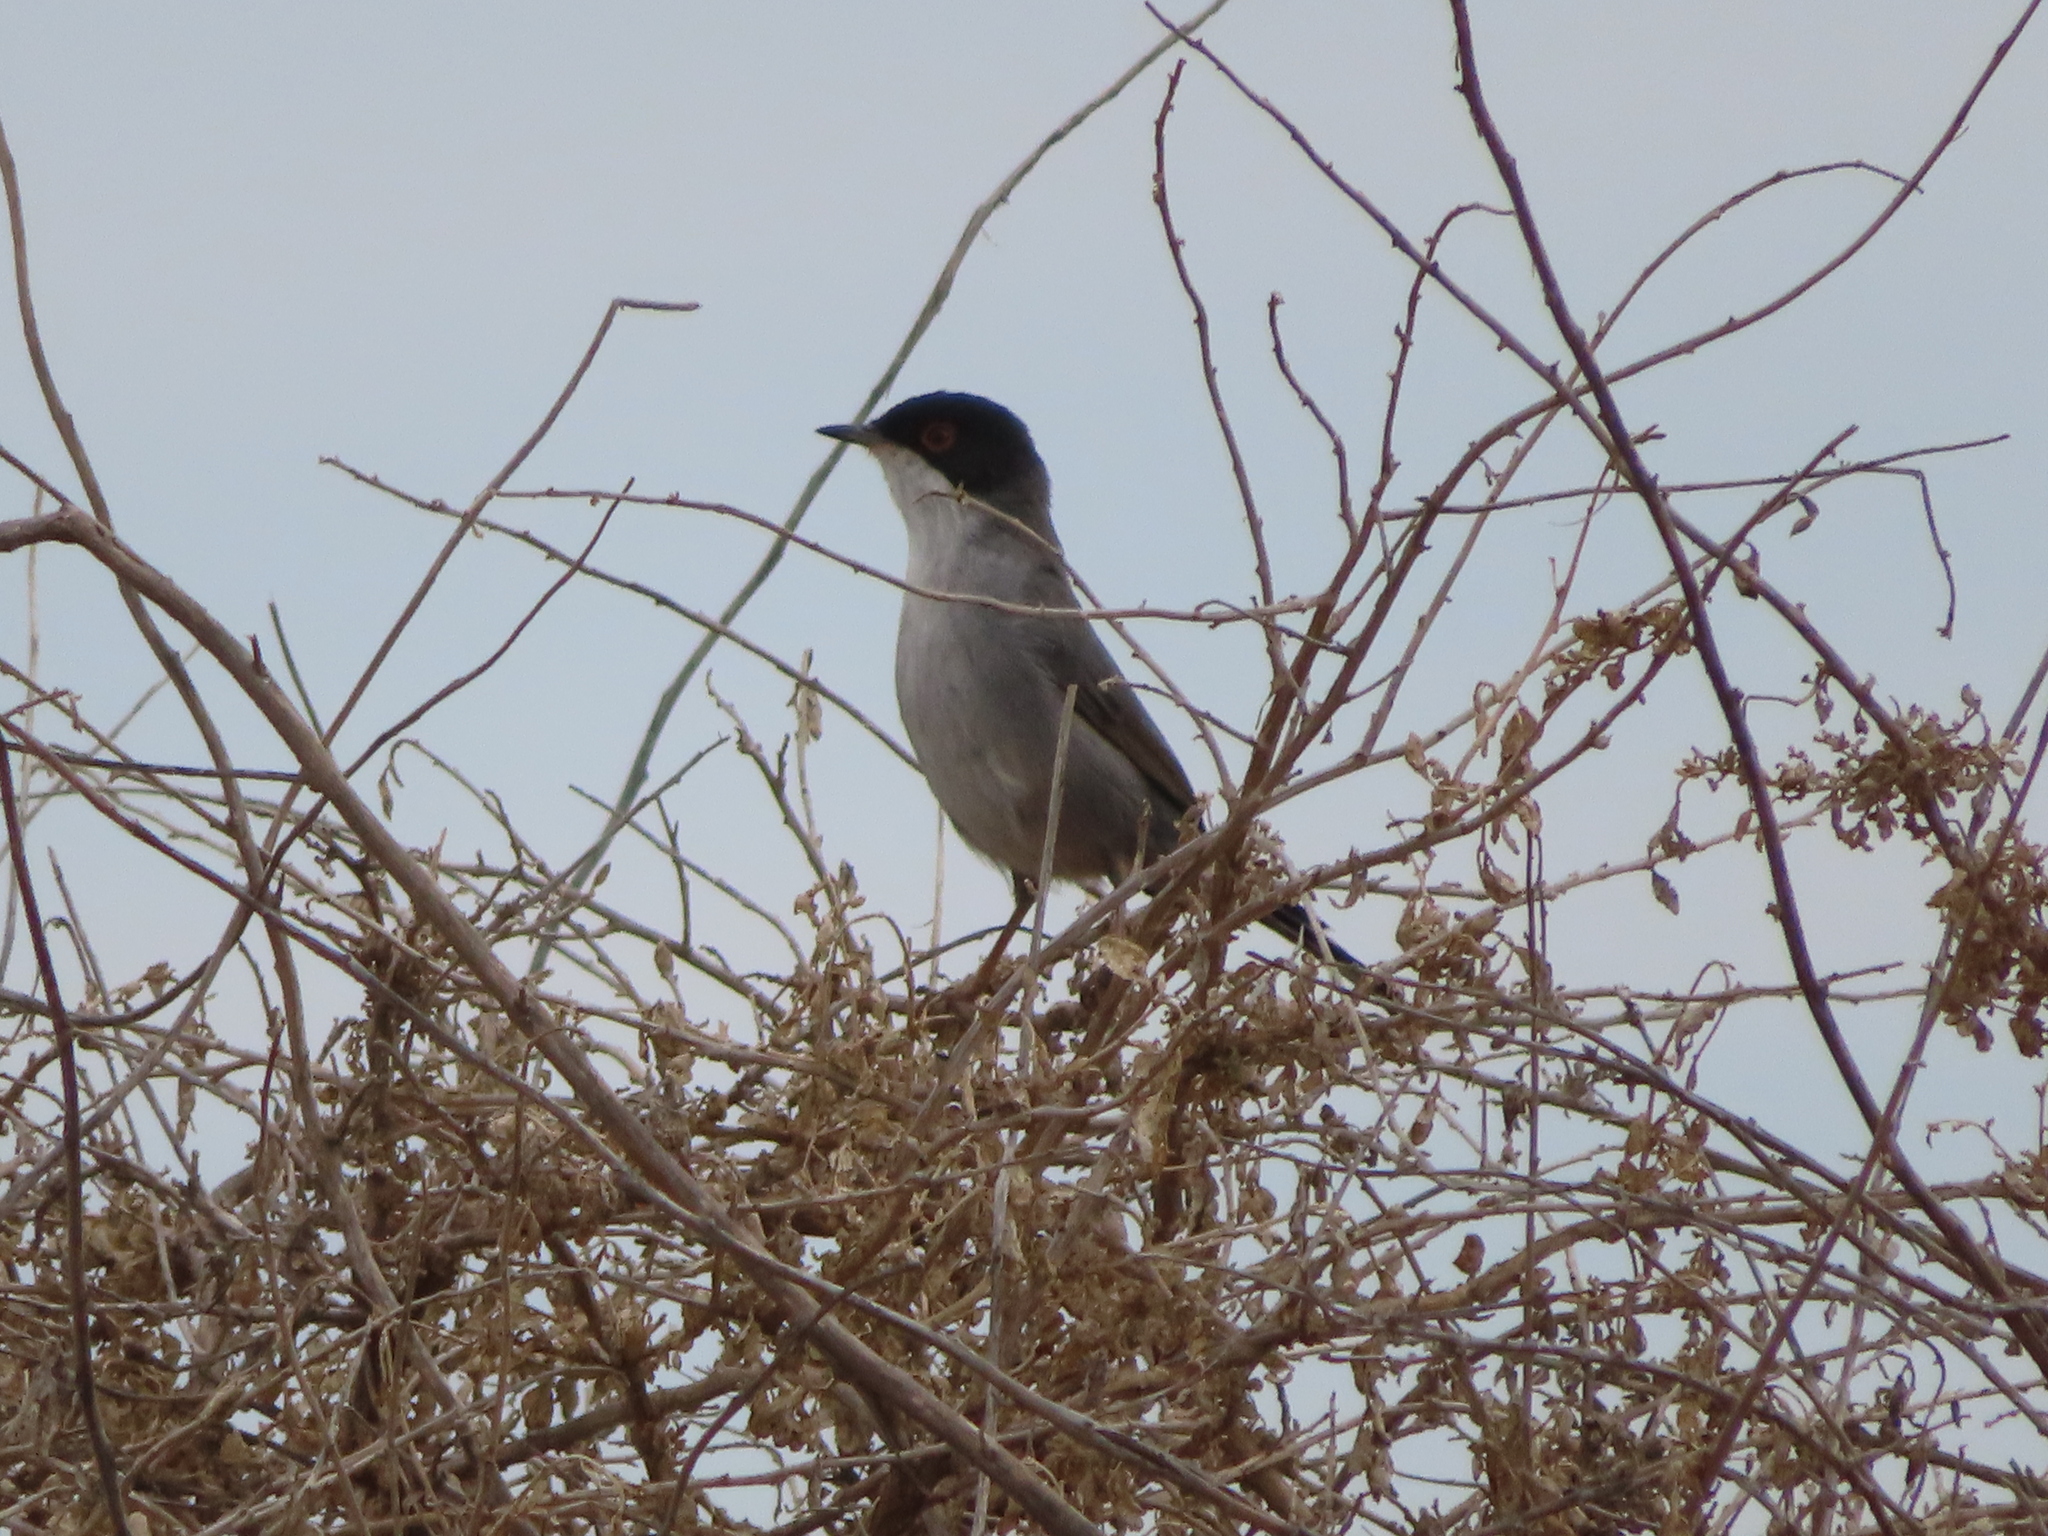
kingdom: Animalia
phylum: Chordata
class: Aves
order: Passeriformes
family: Sylviidae
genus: Curruca
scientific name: Curruca melanocephala
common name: Sardinian warbler
